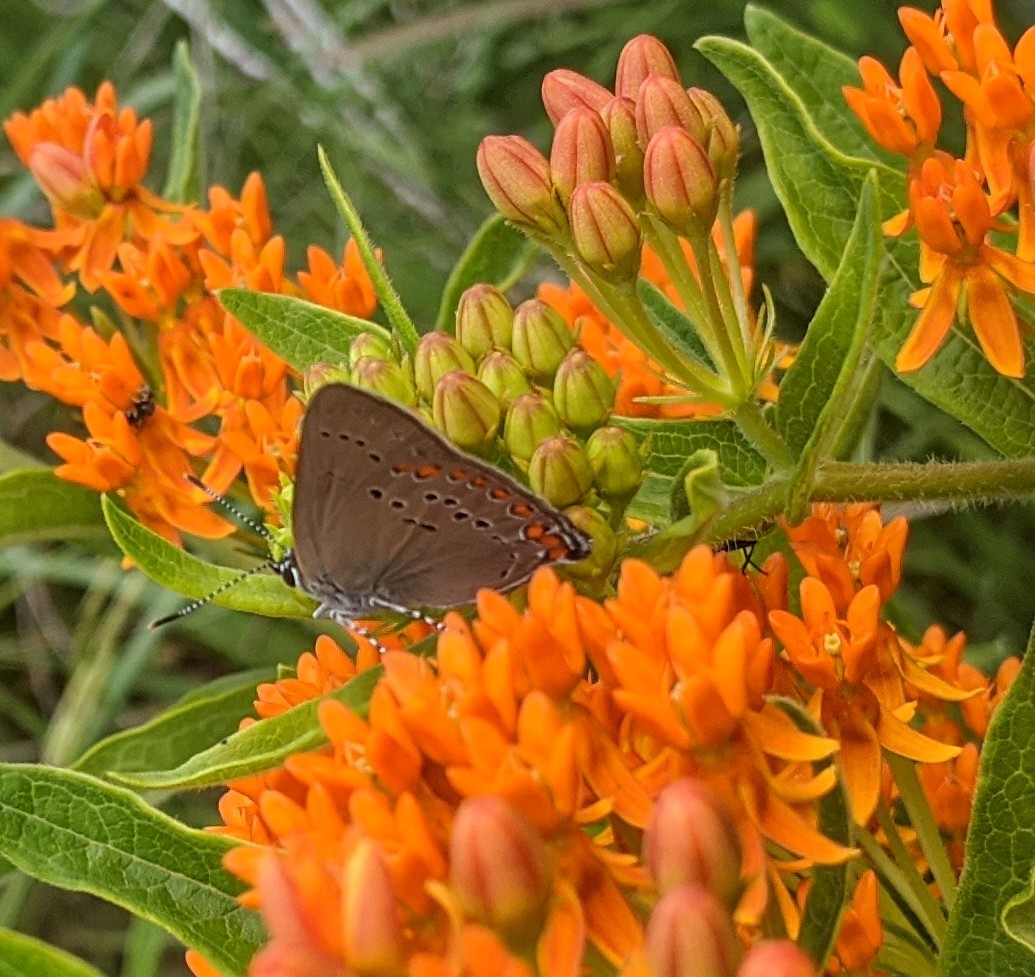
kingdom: Animalia
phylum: Arthropoda
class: Insecta
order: Lepidoptera
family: Lycaenidae
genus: Harkenclenus
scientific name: Harkenclenus titus
